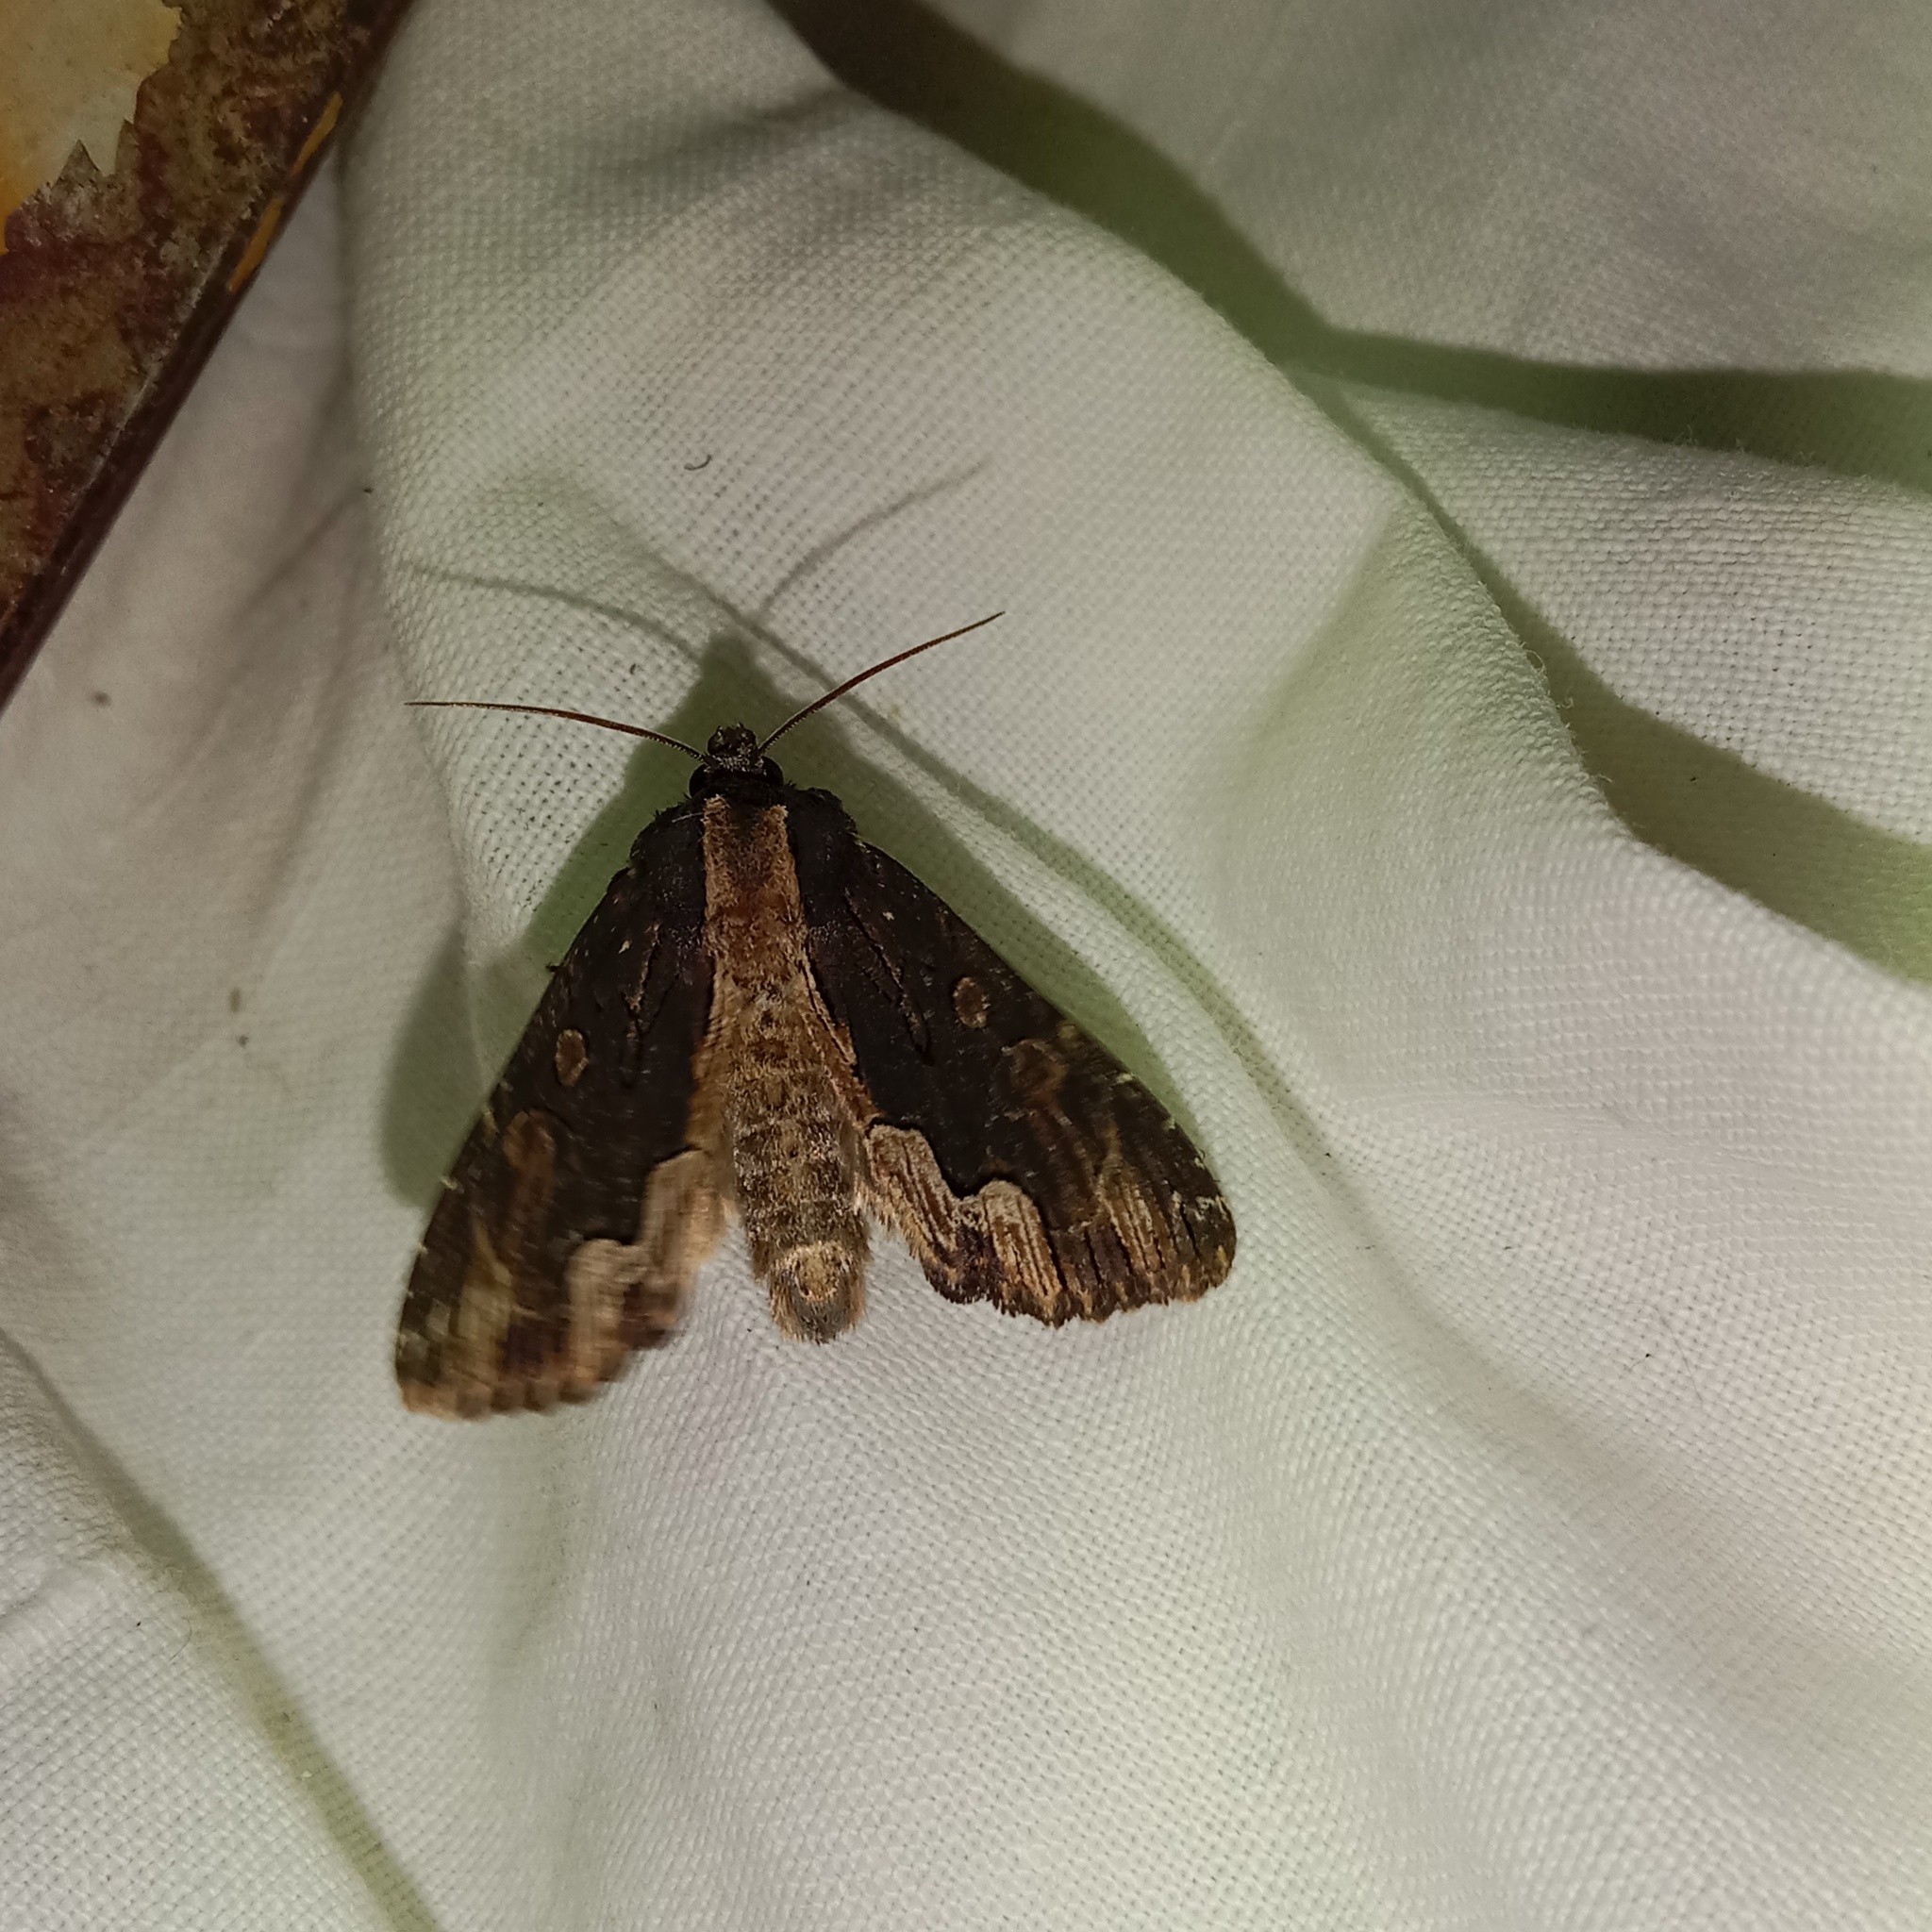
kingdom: Animalia
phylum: Arthropoda
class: Insecta
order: Lepidoptera
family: Noctuidae
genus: Dypterygia
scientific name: Dypterygia scabriuscula
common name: Bird's wing
